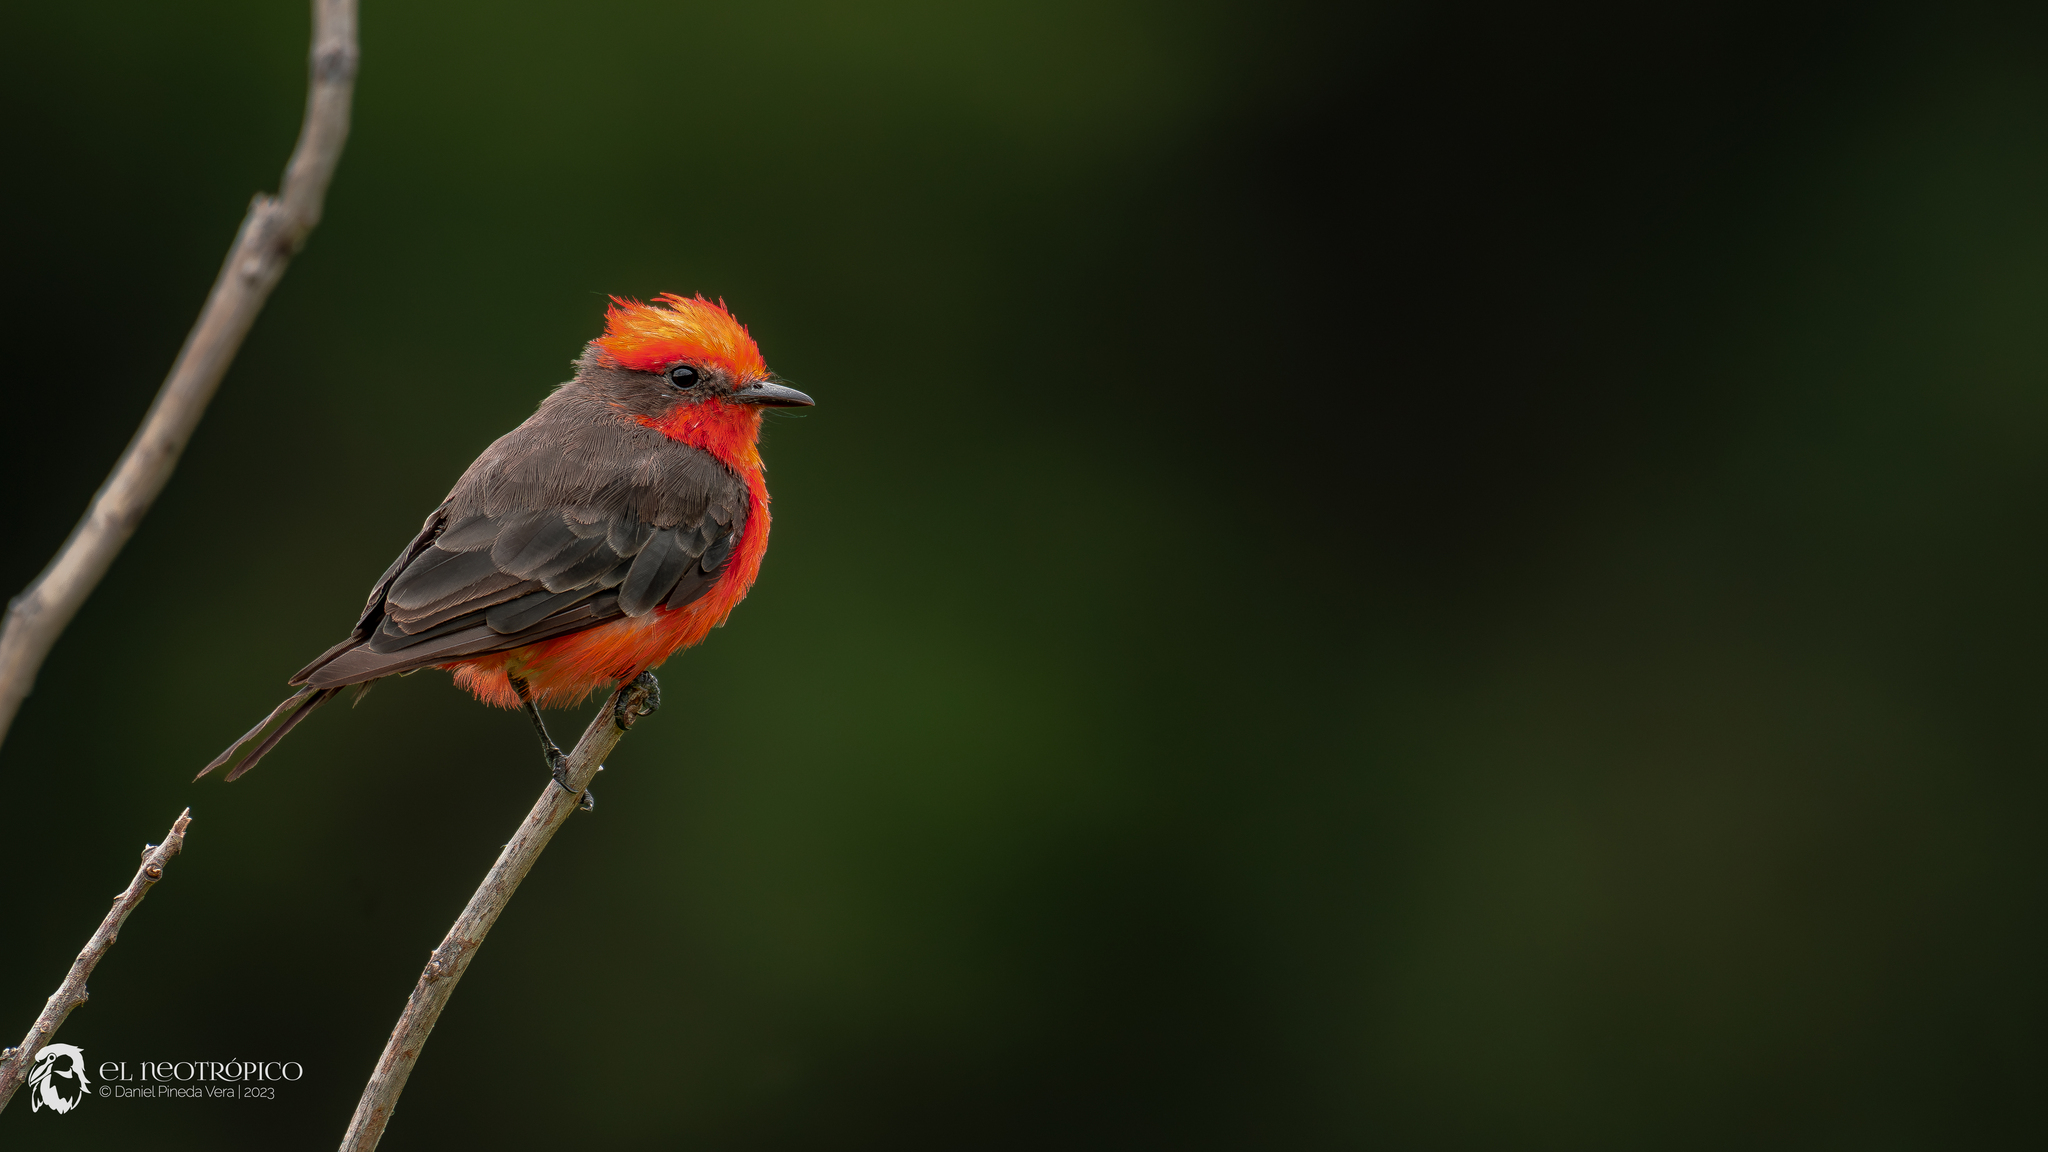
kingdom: Animalia
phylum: Chordata
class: Aves
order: Passeriformes
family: Tyrannidae
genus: Pyrocephalus
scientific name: Pyrocephalus rubinus
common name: Vermilion flycatcher
